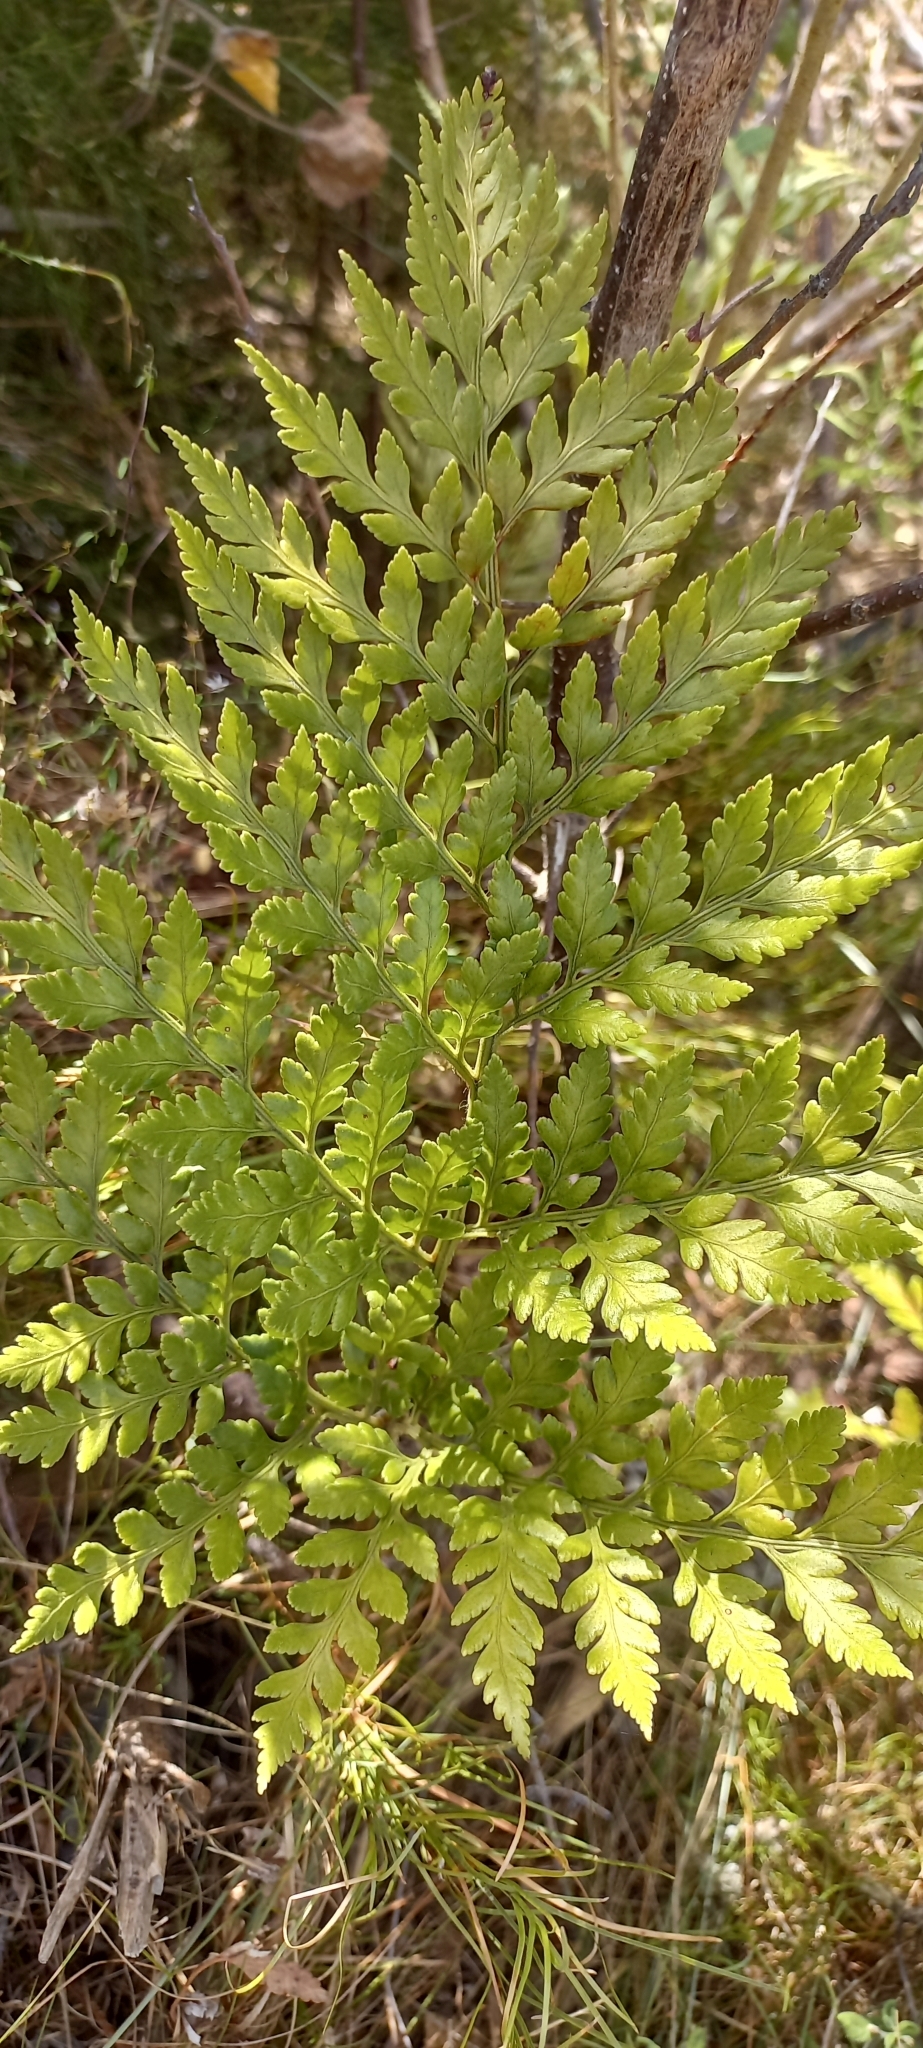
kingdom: Plantae
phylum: Tracheophyta
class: Polypodiopsida
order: Polypodiales
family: Dryopteridaceae
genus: Rumohra
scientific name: Rumohra adiantiformis
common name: Leather fern
